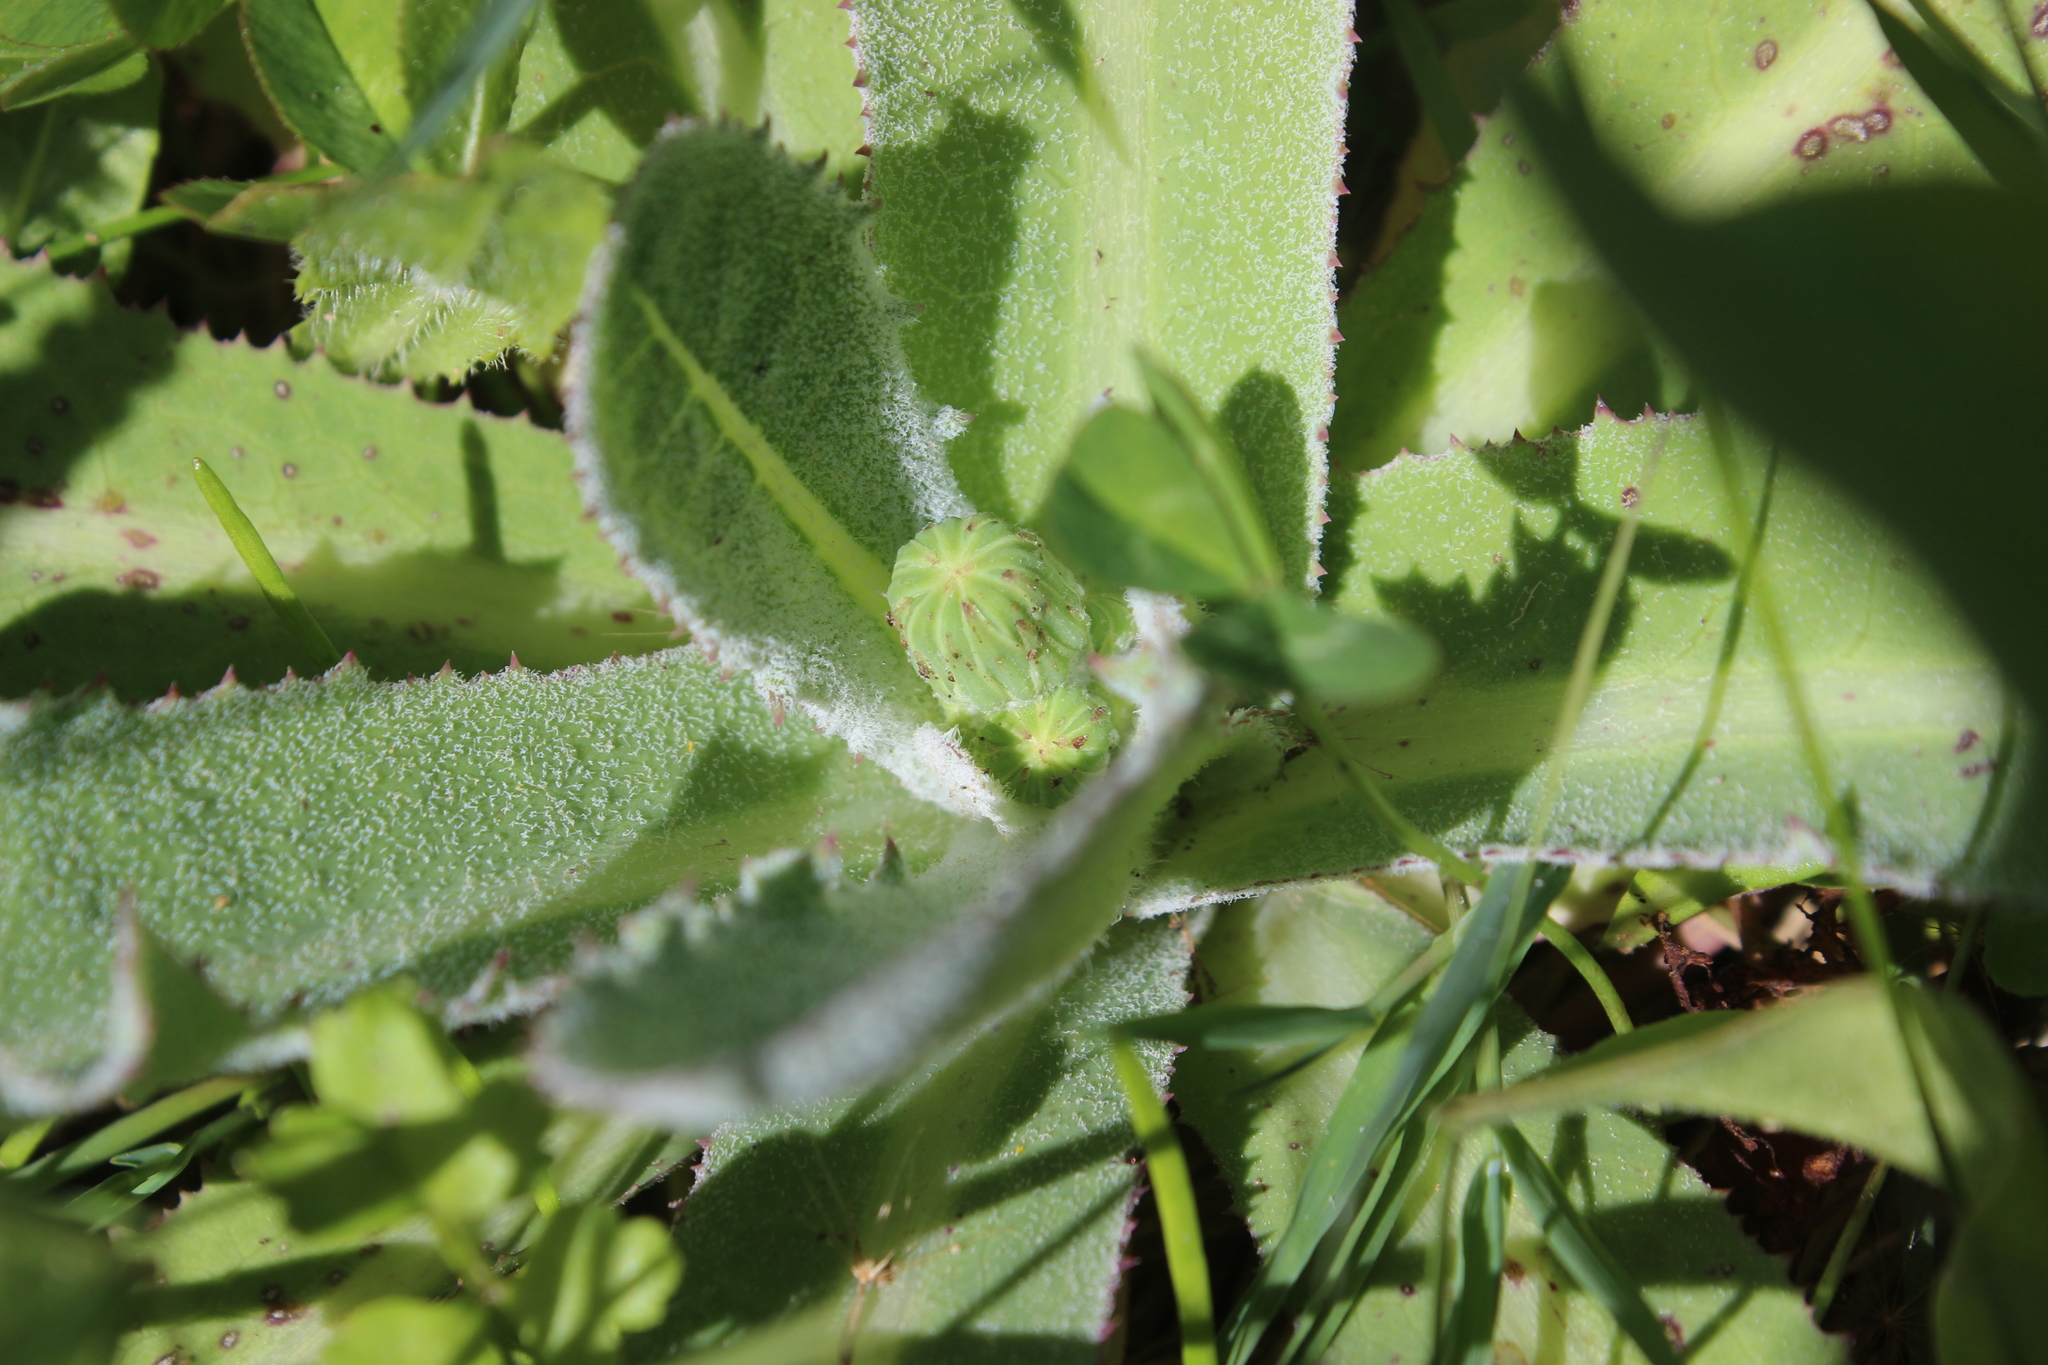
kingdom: Plantae
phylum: Tracheophyta
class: Magnoliopsida
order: Asterales
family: Asteraceae
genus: Sonchus
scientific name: Sonchus kirkii
